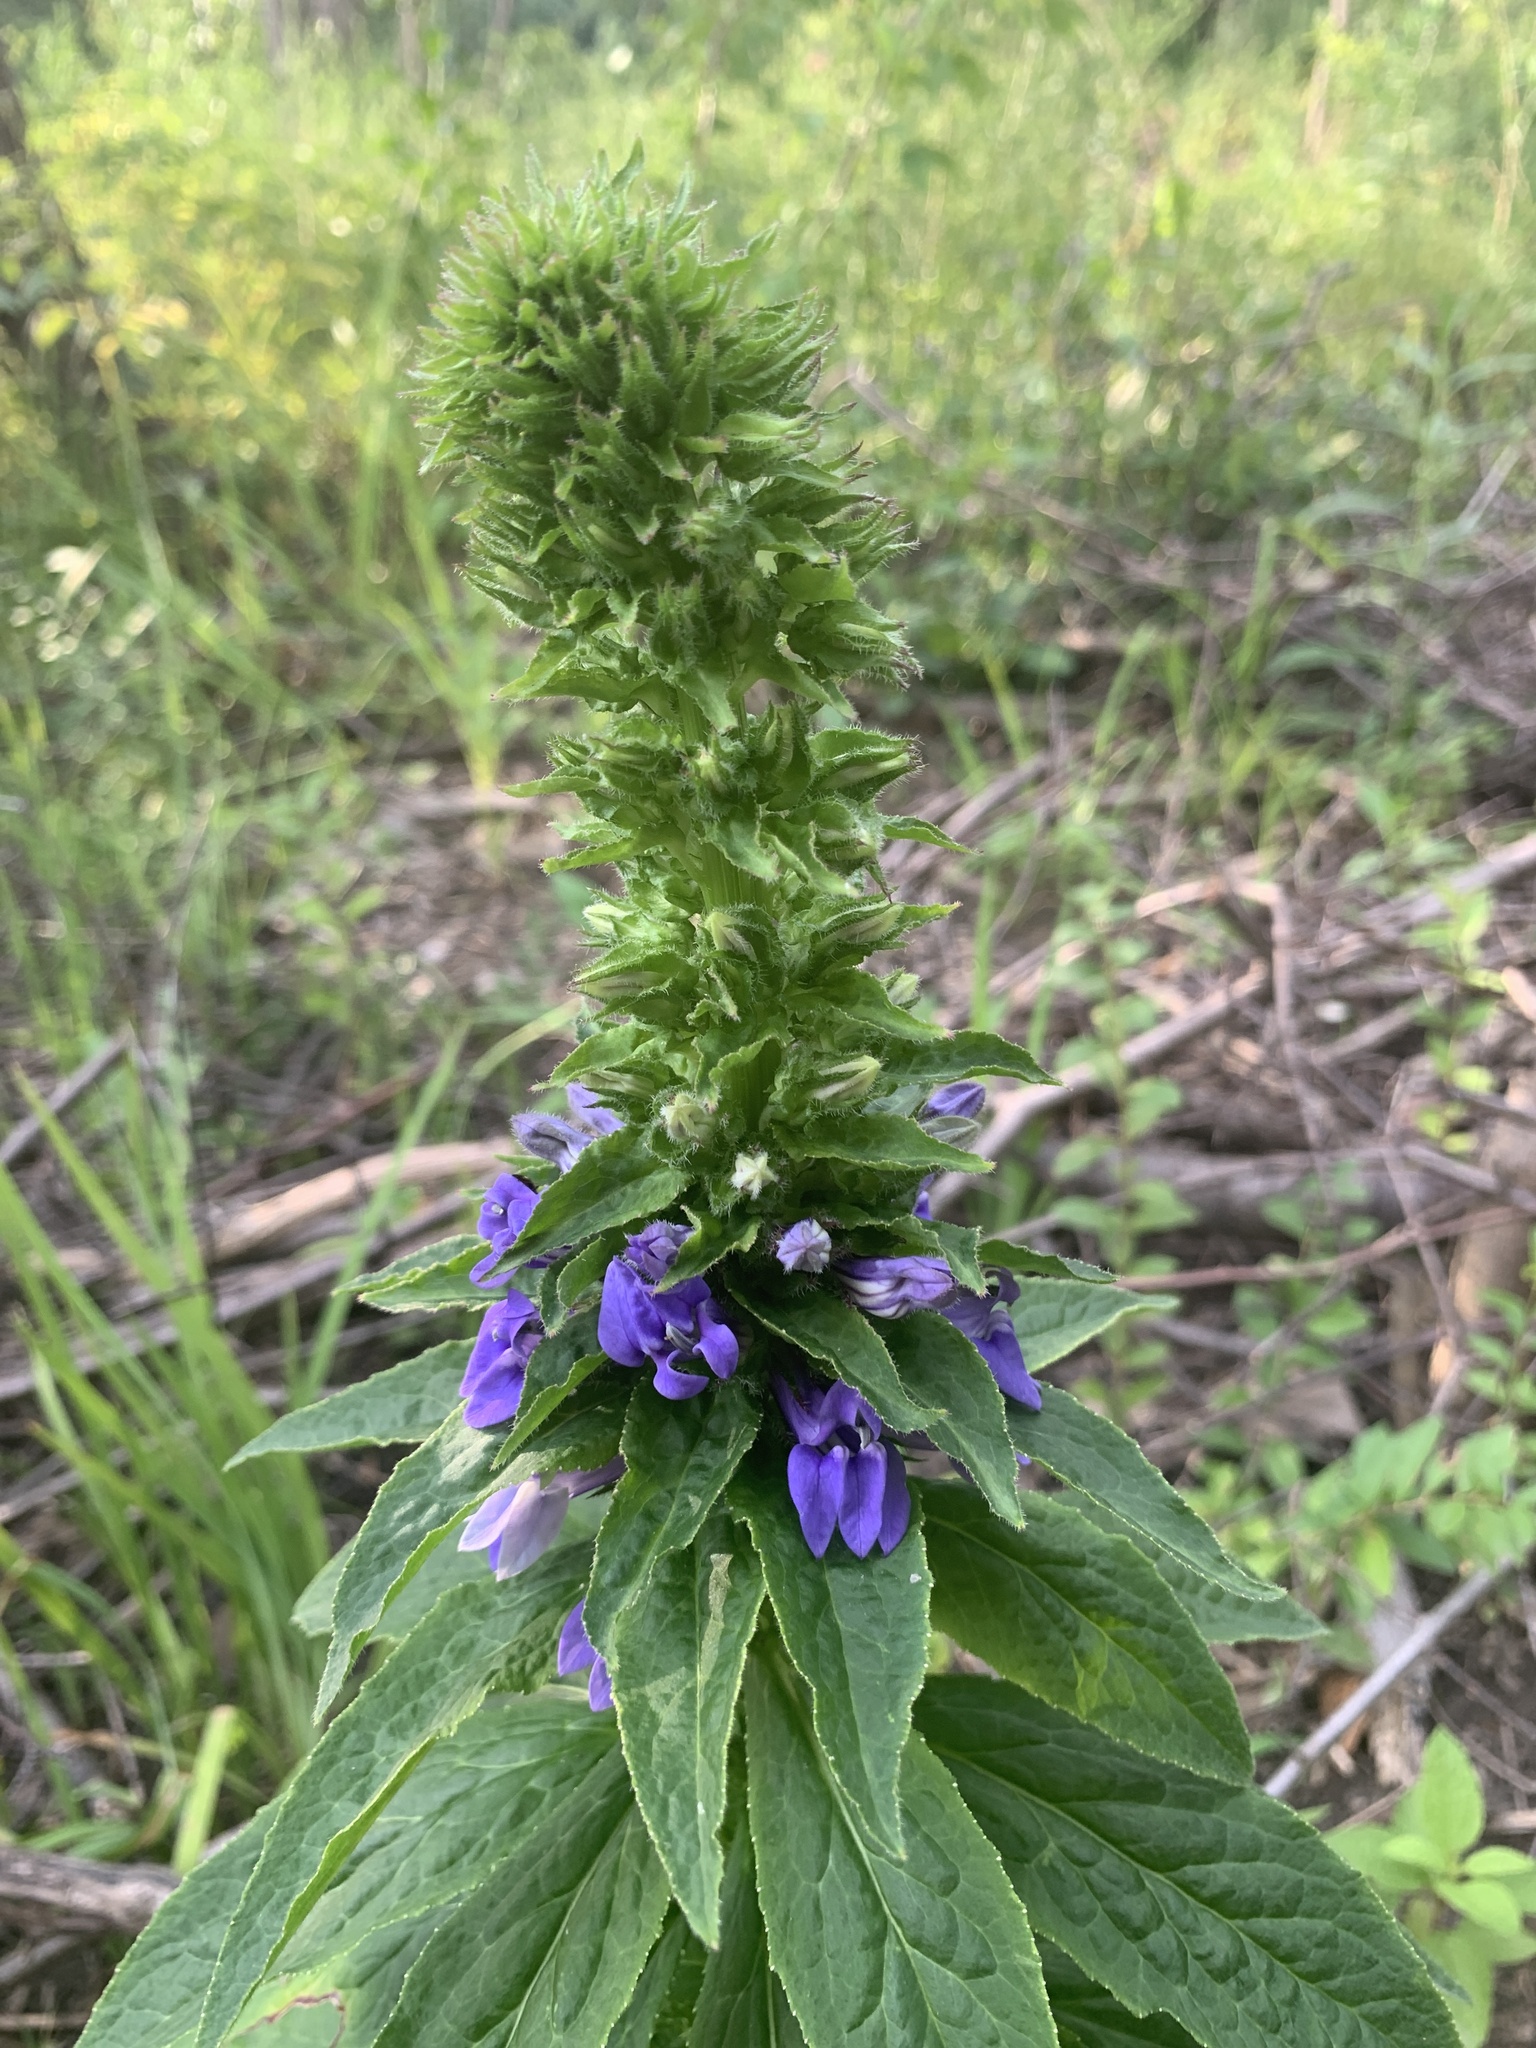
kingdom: Plantae
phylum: Tracheophyta
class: Magnoliopsida
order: Asterales
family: Campanulaceae
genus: Lobelia
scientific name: Lobelia siphilitica
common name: Great lobelia
